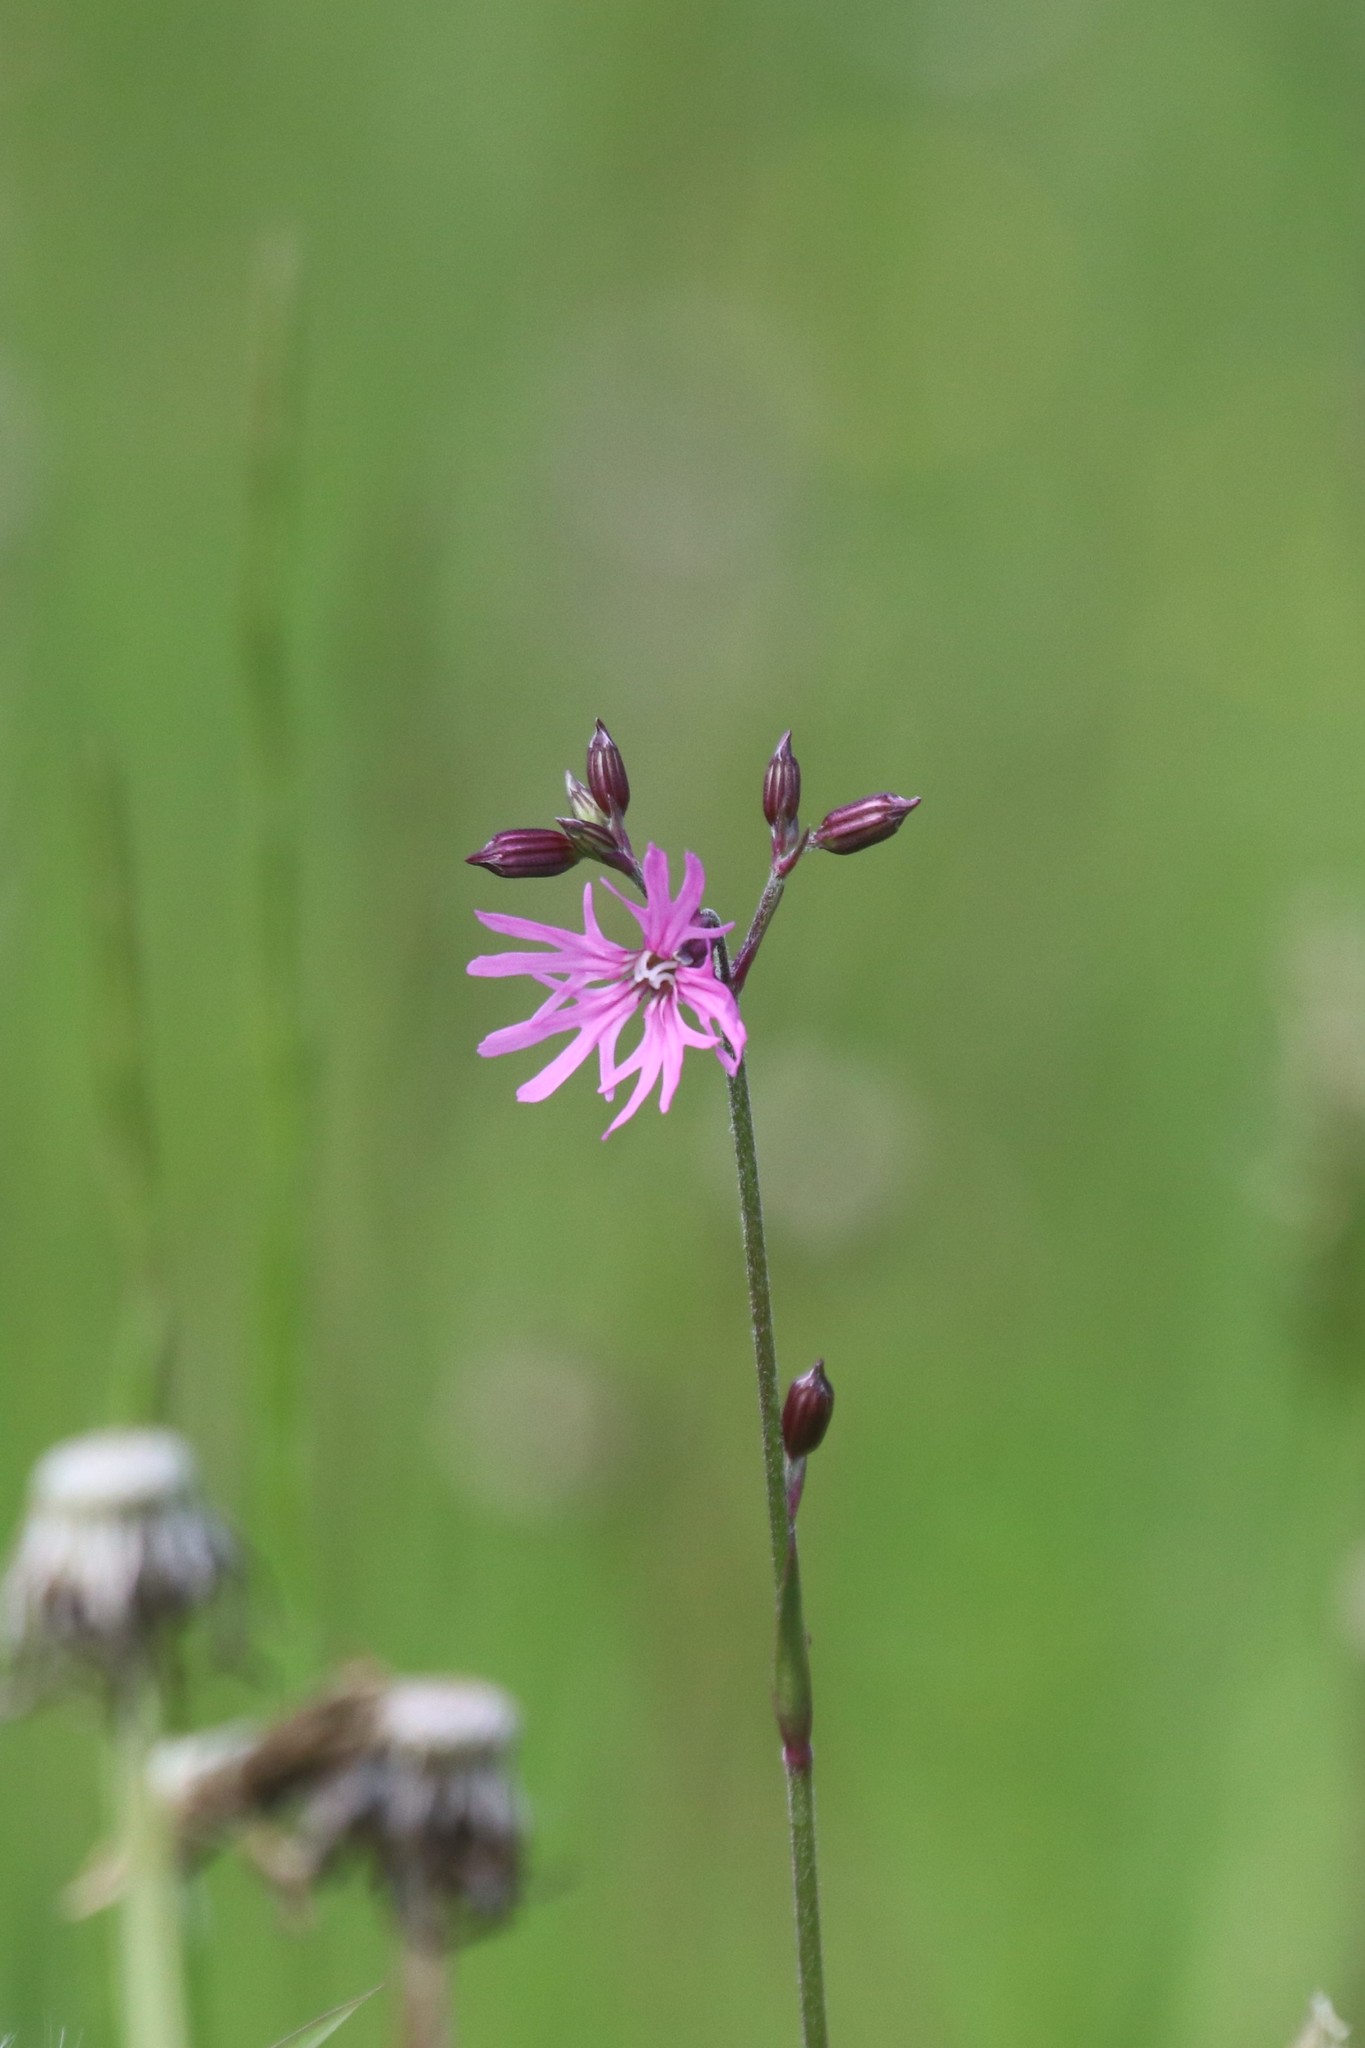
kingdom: Plantae
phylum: Tracheophyta
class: Magnoliopsida
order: Caryophyllales
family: Caryophyllaceae
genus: Silene
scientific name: Silene flos-cuculi
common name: Ragged-robin
